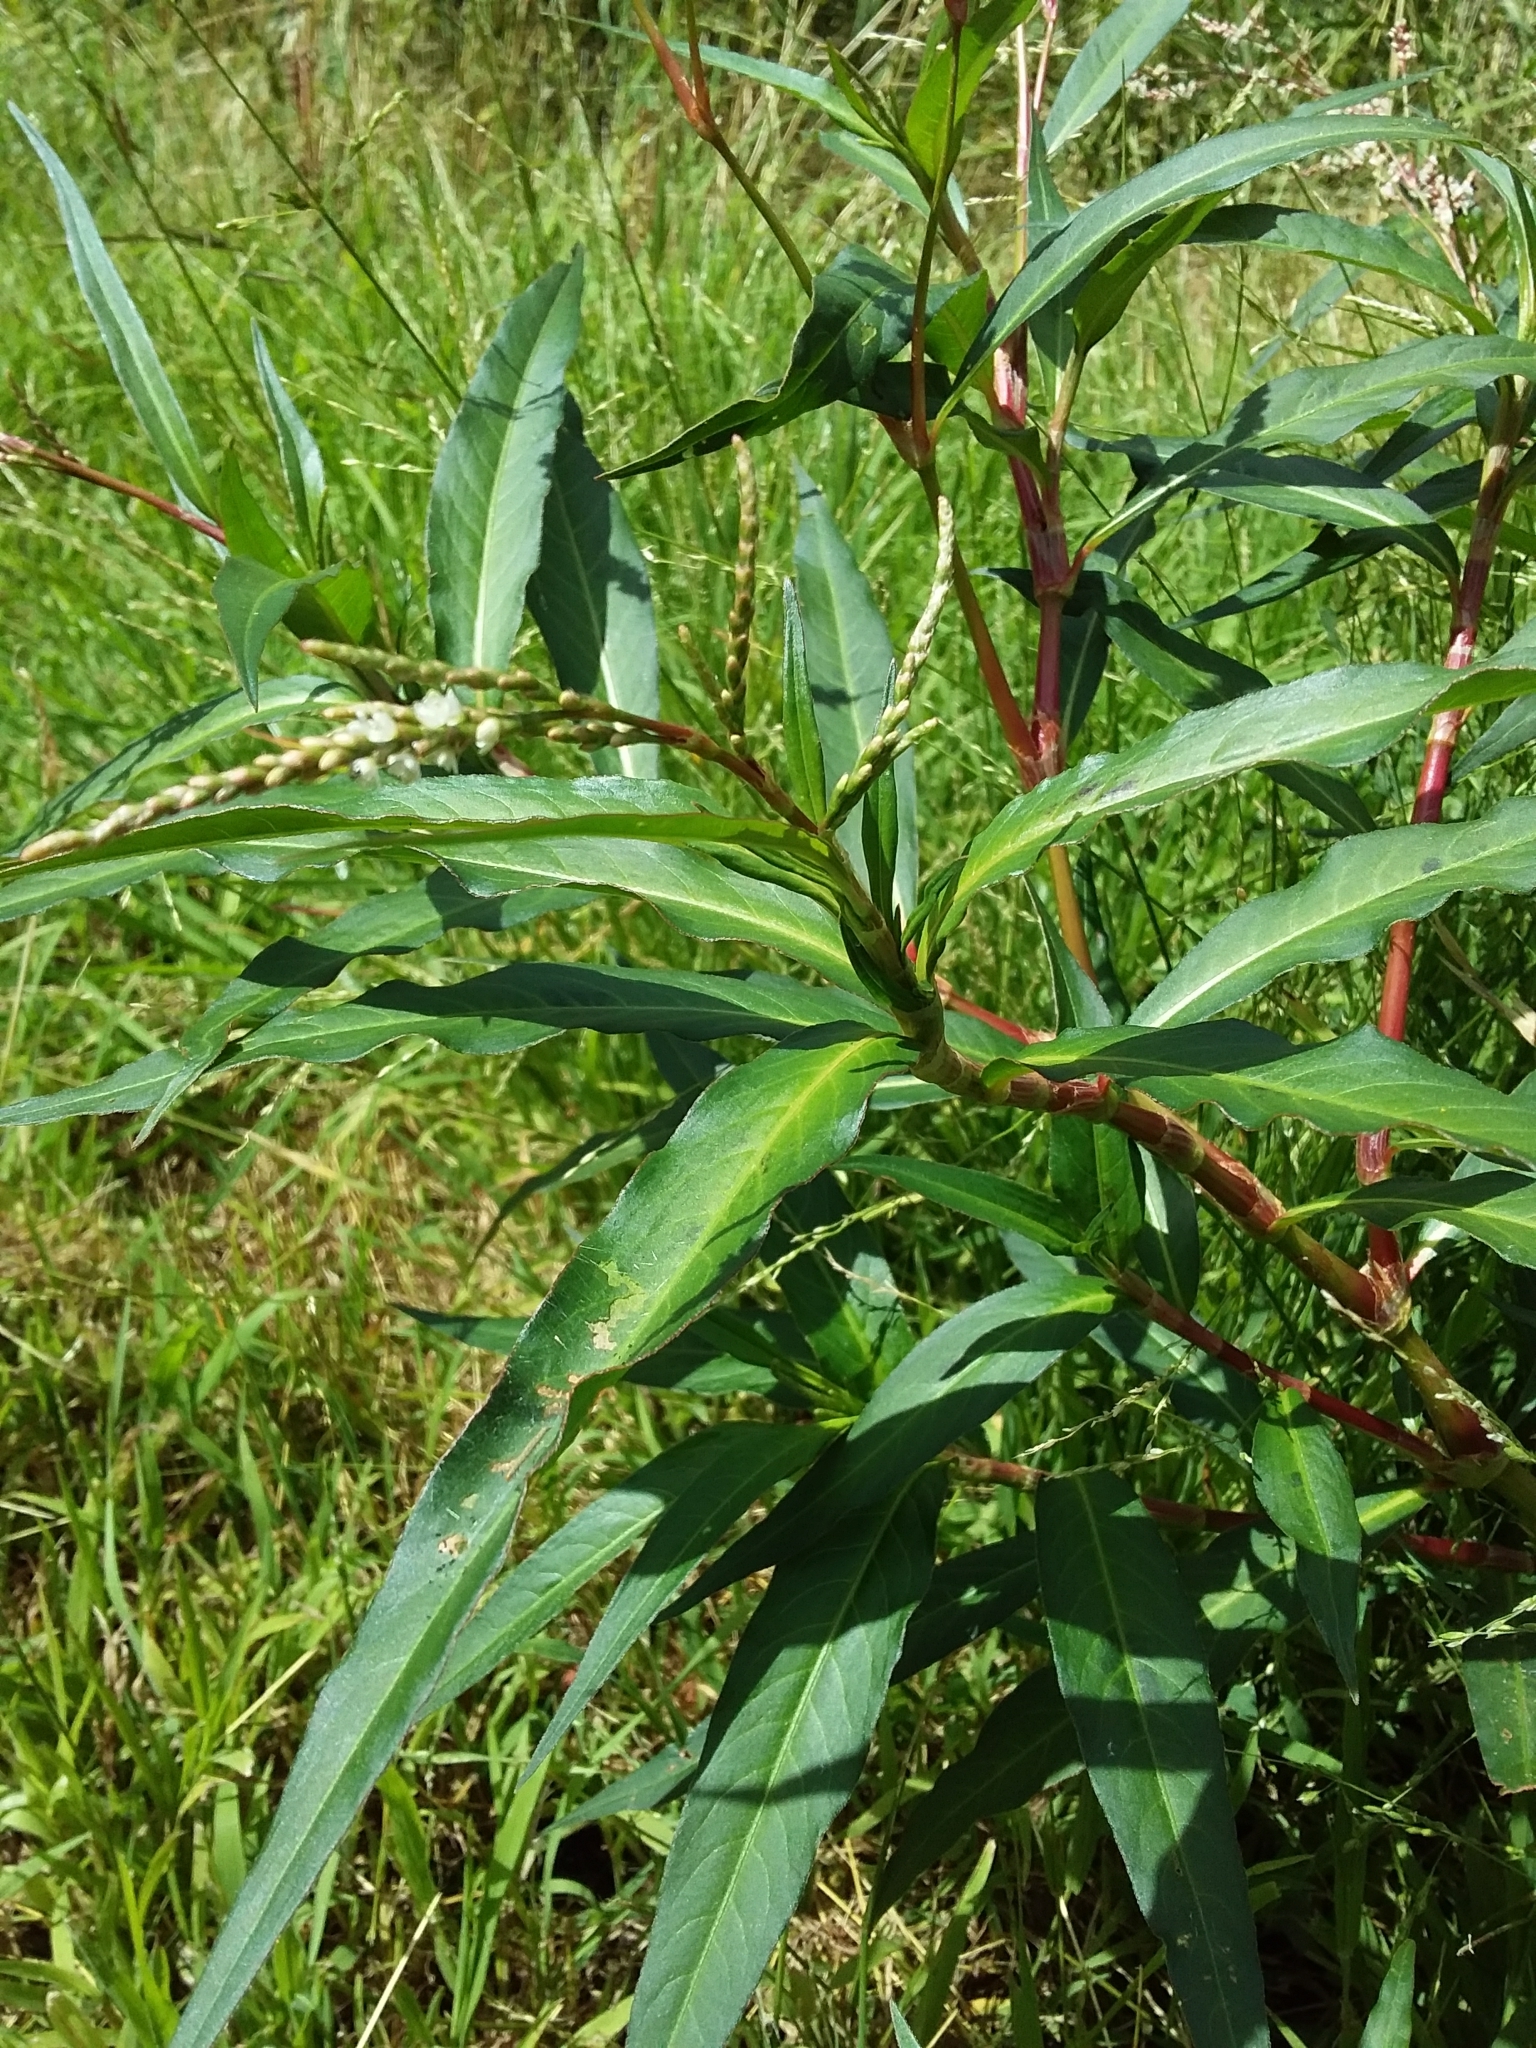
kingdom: Plantae
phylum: Tracheophyta
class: Magnoliopsida
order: Caryophyllales
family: Polygonaceae
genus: Persicaria
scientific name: Persicaria lapathifolia
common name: Curlytop knotweed
